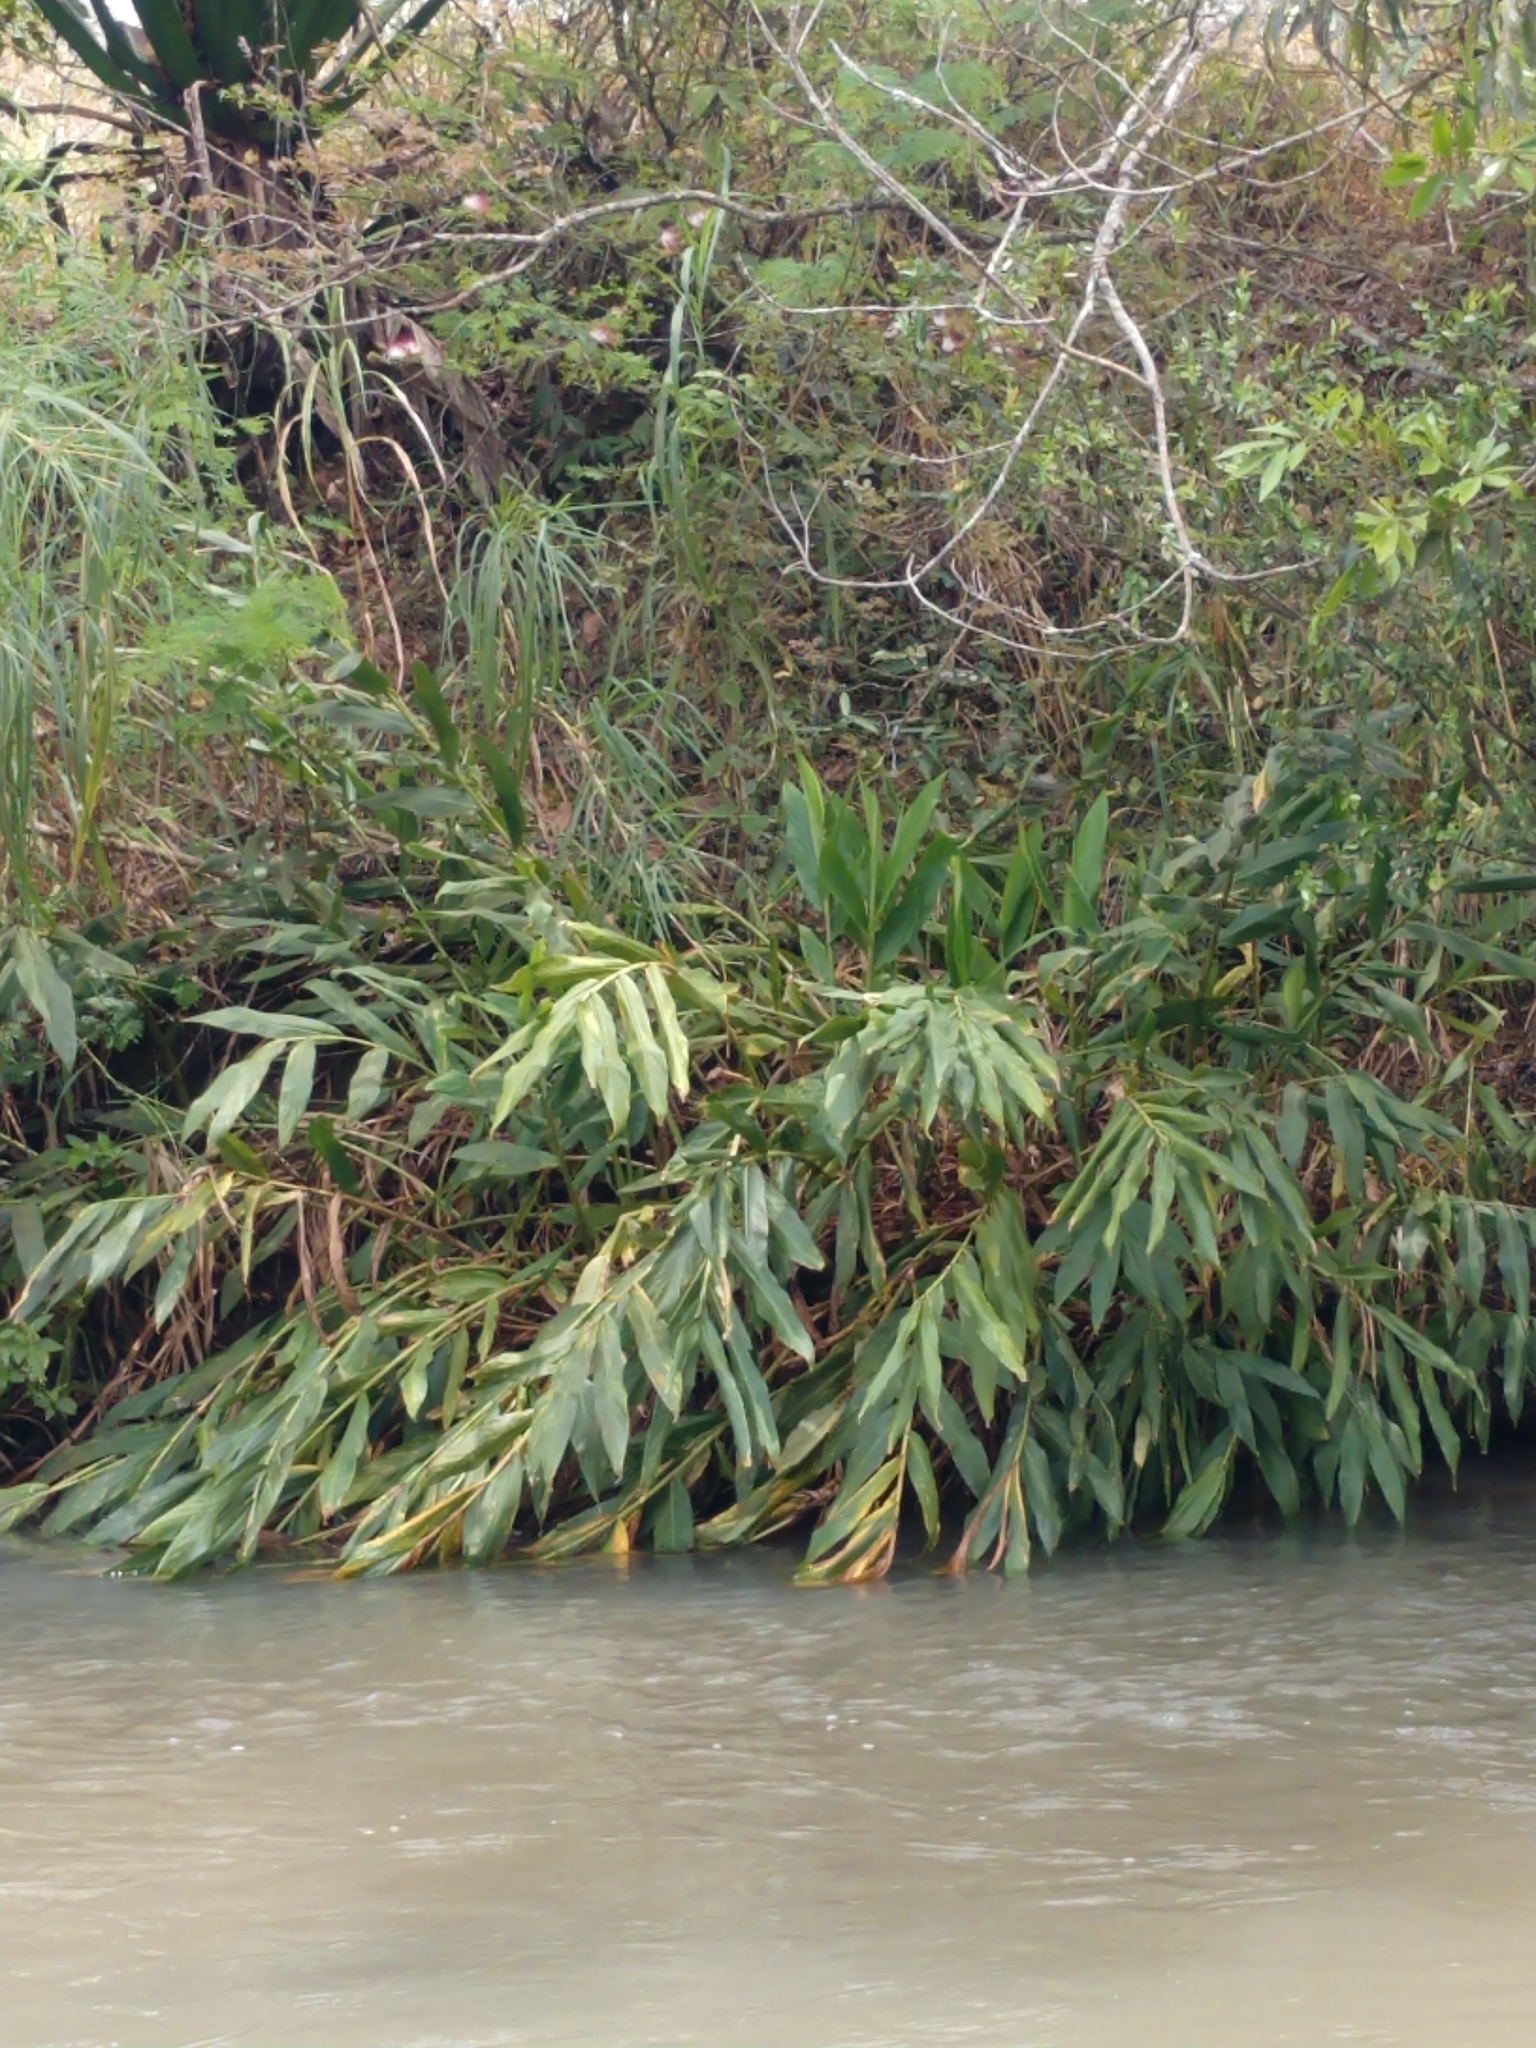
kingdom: Plantae
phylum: Tracheophyta
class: Liliopsida
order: Zingiberales
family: Zingiberaceae
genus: Hedychium
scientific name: Hedychium coronarium
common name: White garland-lily
